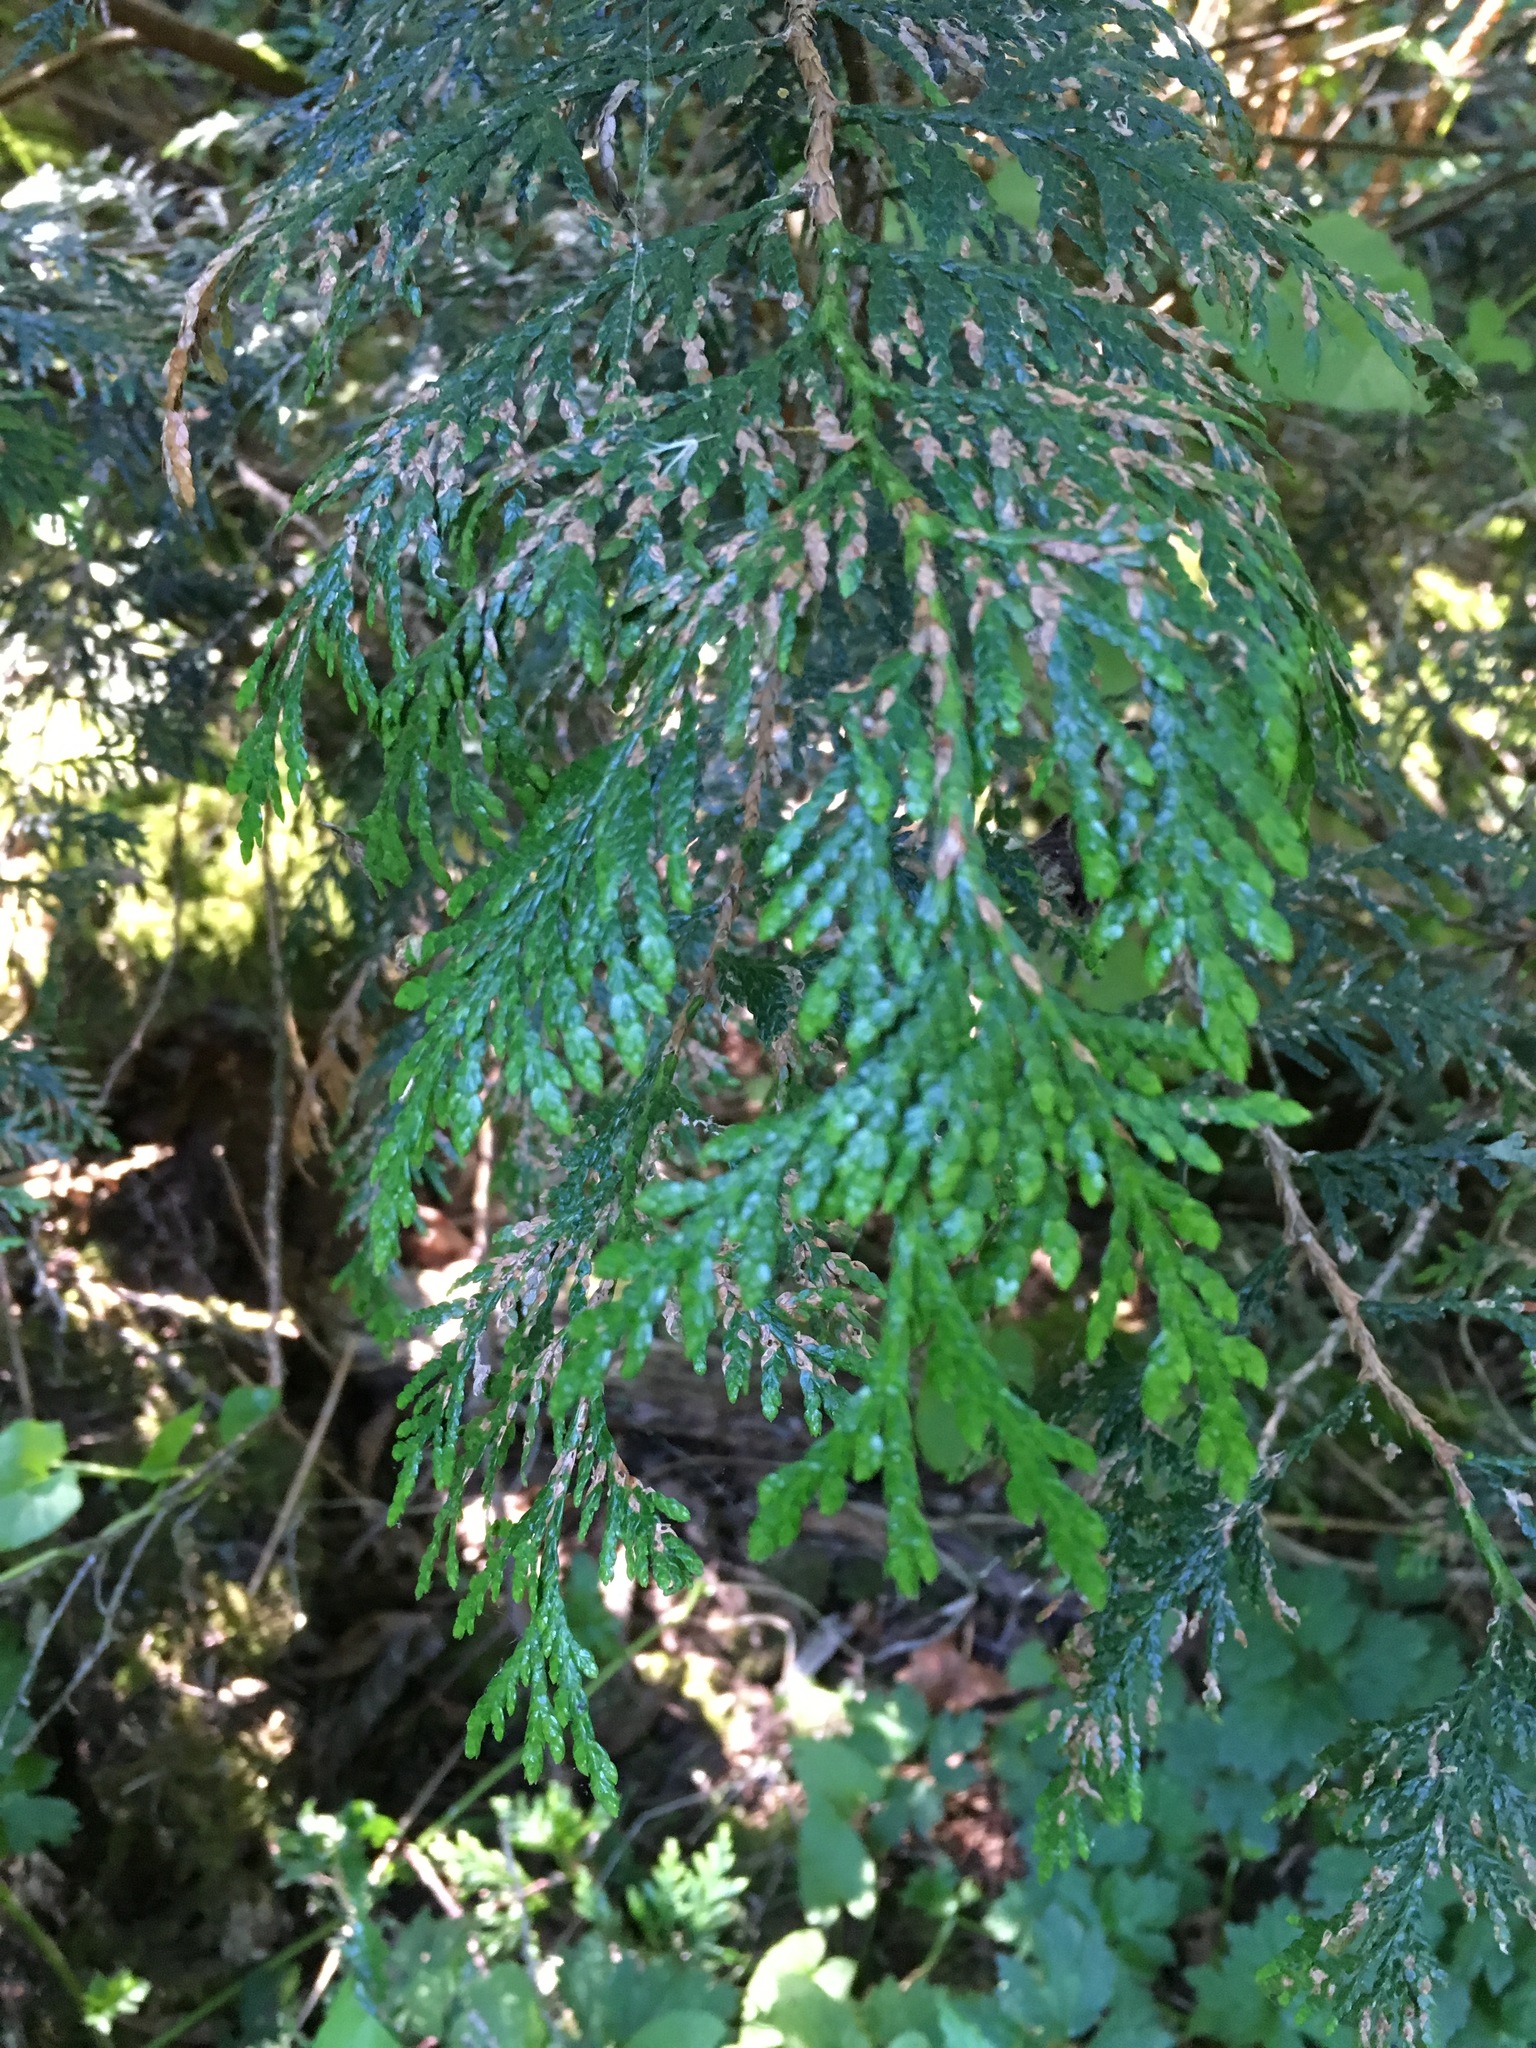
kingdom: Plantae
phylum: Tracheophyta
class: Pinopsida
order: Pinales
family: Cupressaceae
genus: Thuja
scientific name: Thuja plicata
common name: Western red-cedar
